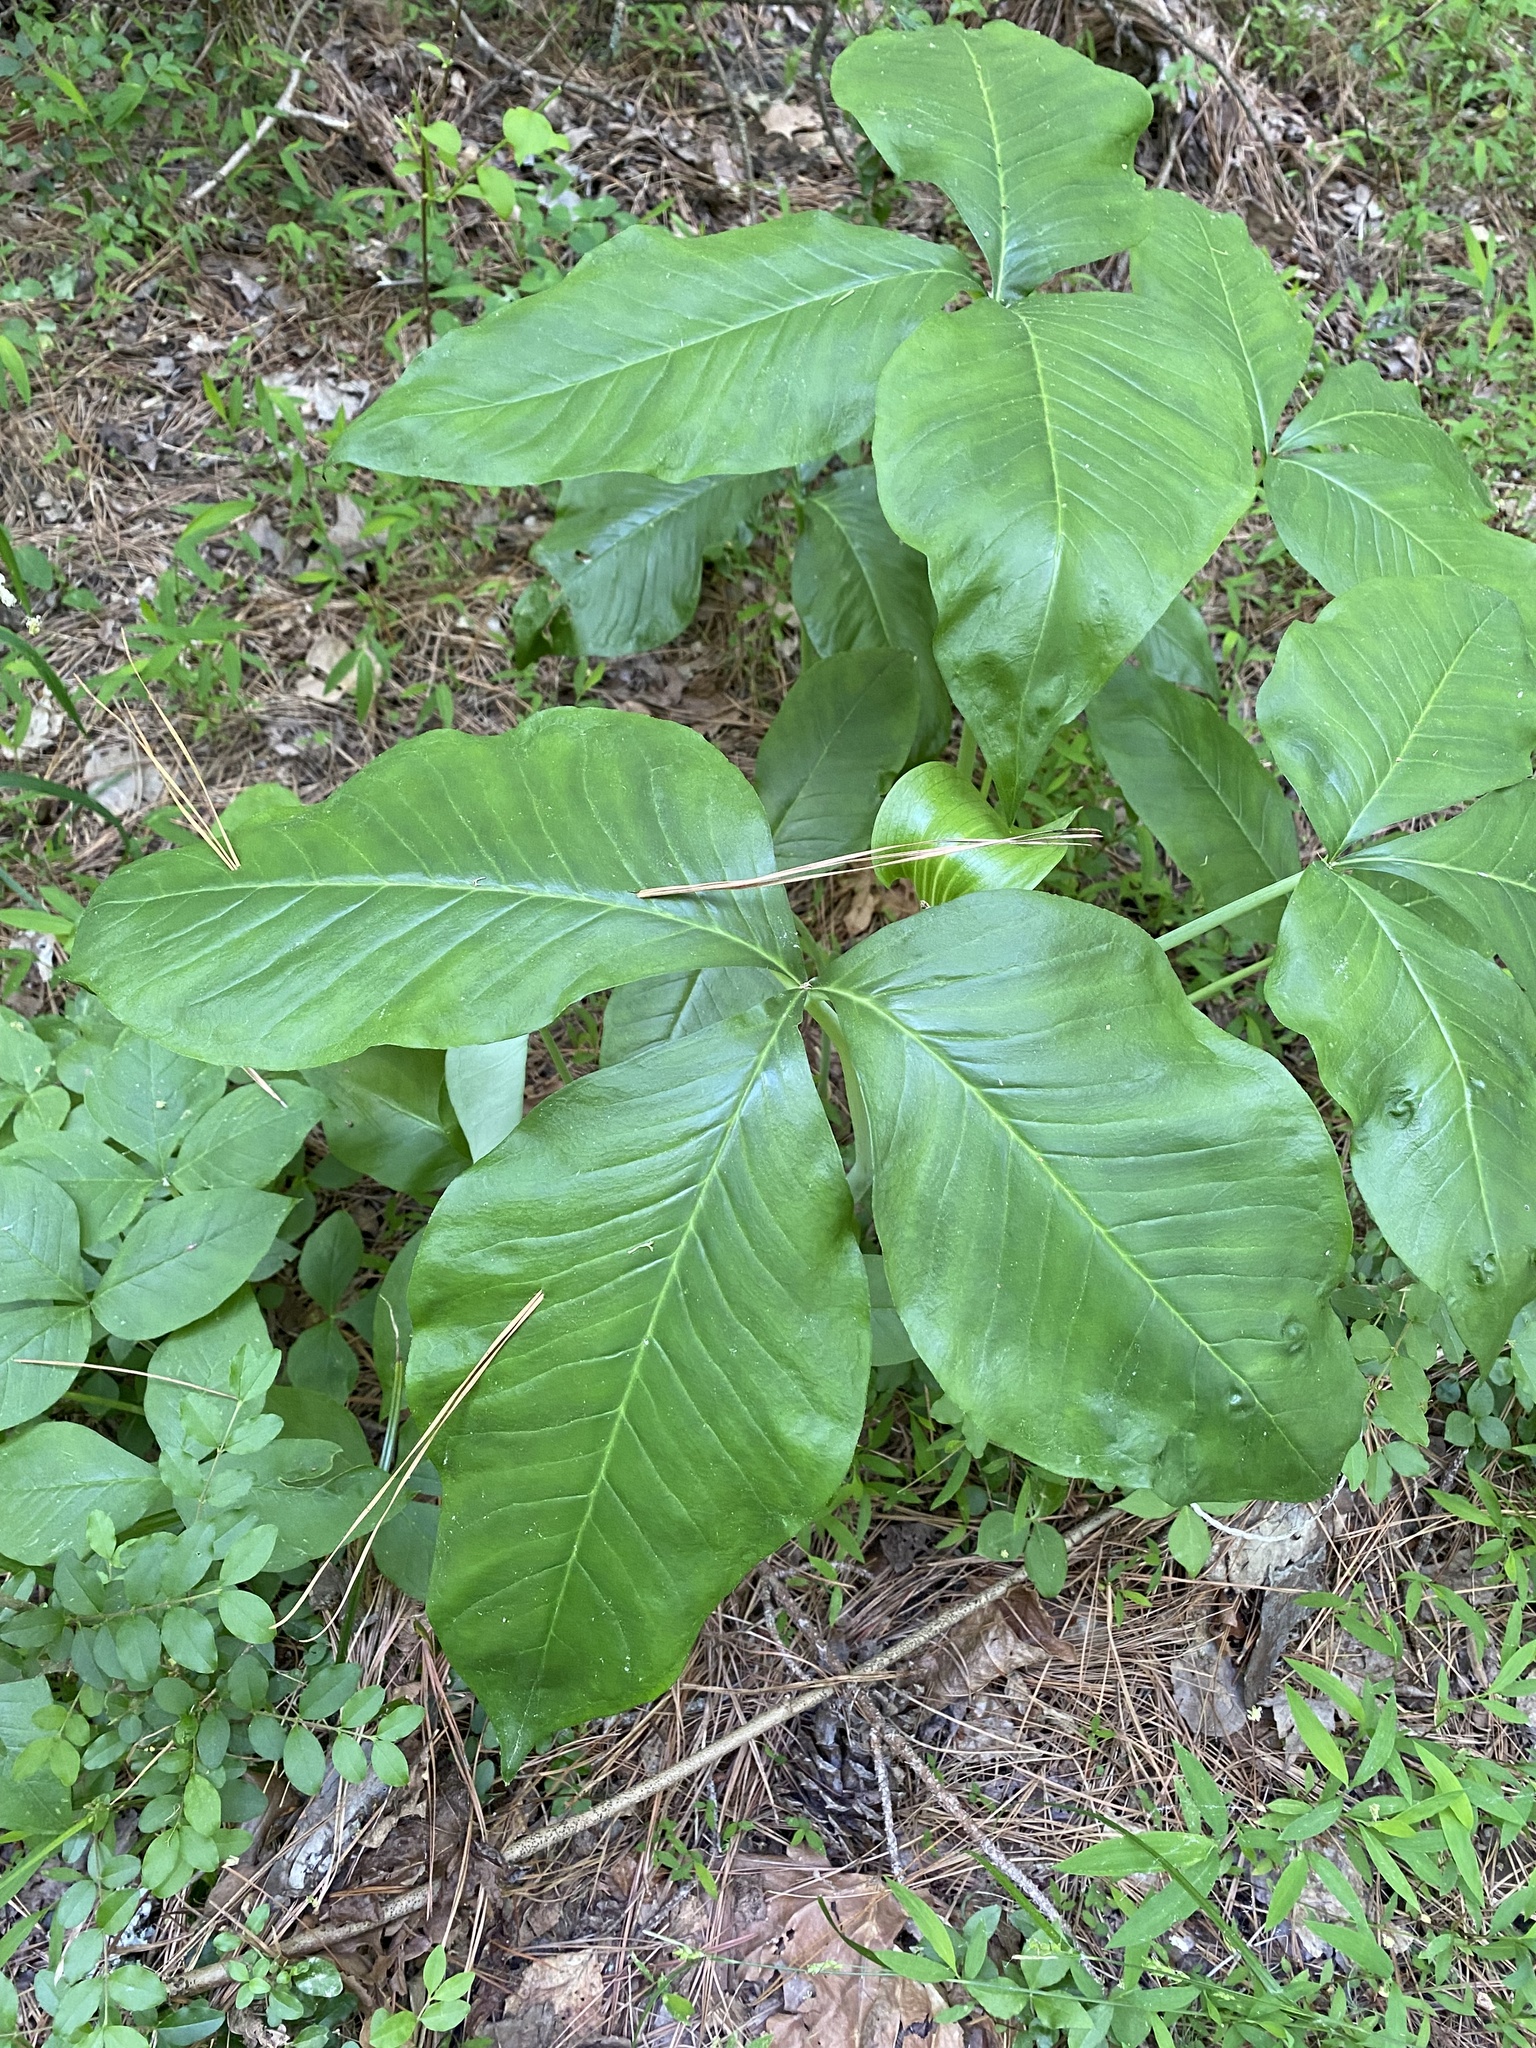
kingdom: Plantae
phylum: Tracheophyta
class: Liliopsida
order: Alismatales
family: Araceae
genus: Arisaema
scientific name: Arisaema triphyllum
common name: Jack-in-the-pulpit
